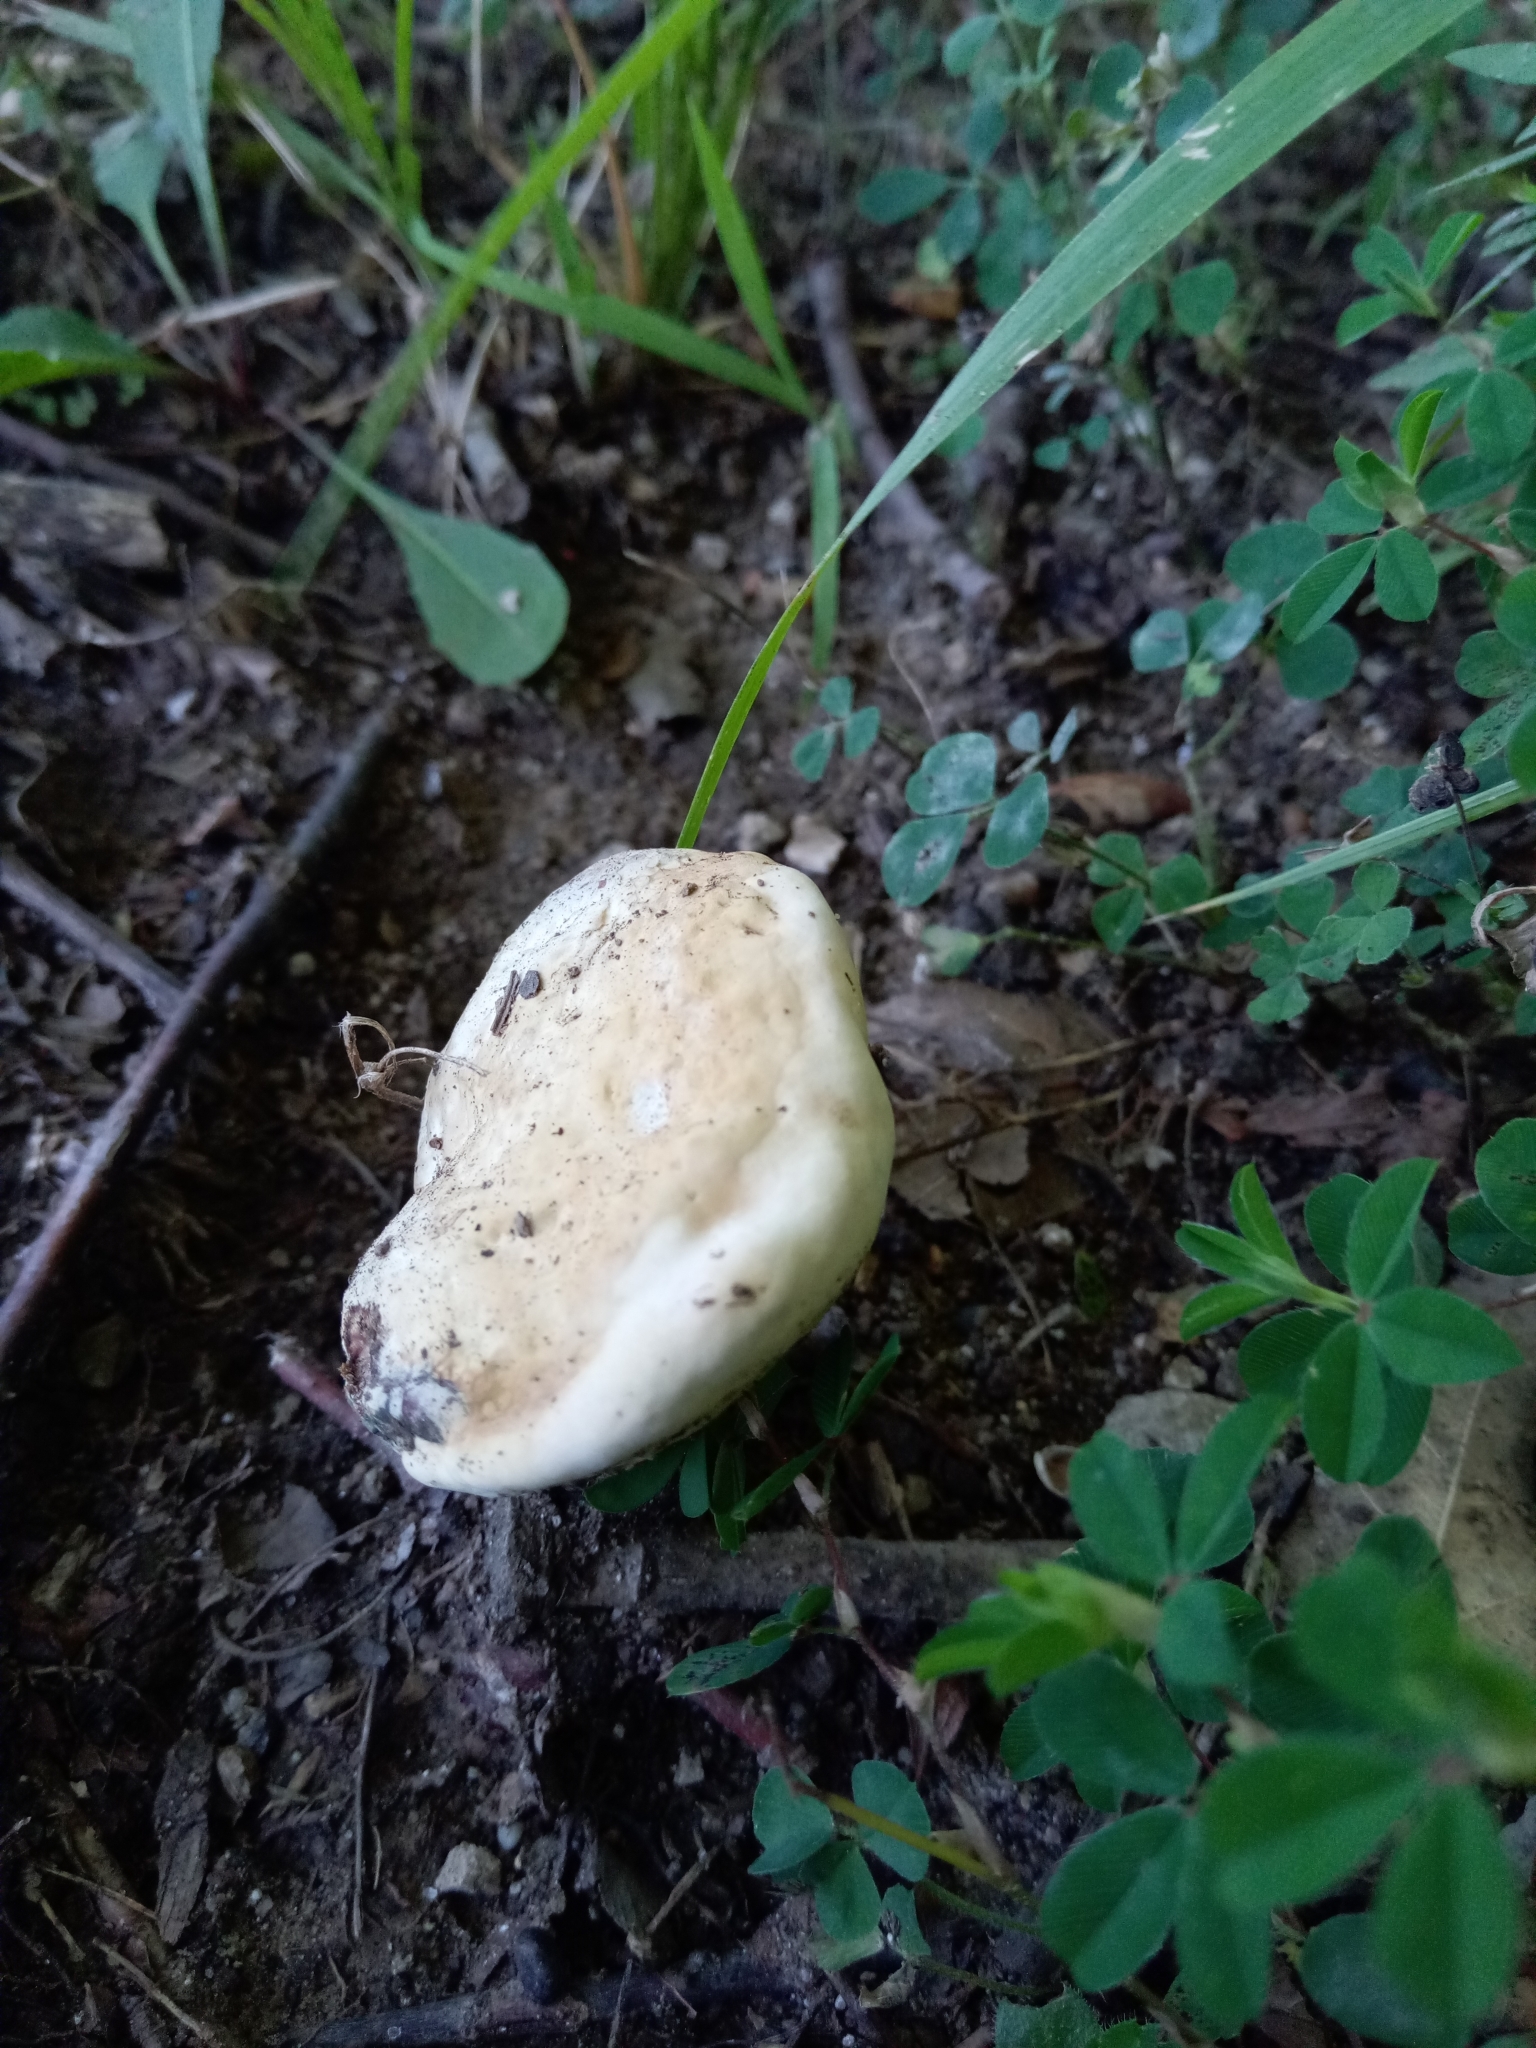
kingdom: Fungi
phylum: Basidiomycota
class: Agaricomycetes
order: Polyporales
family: Polyporaceae
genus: Ganoderma
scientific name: Ganoderma curtisii
